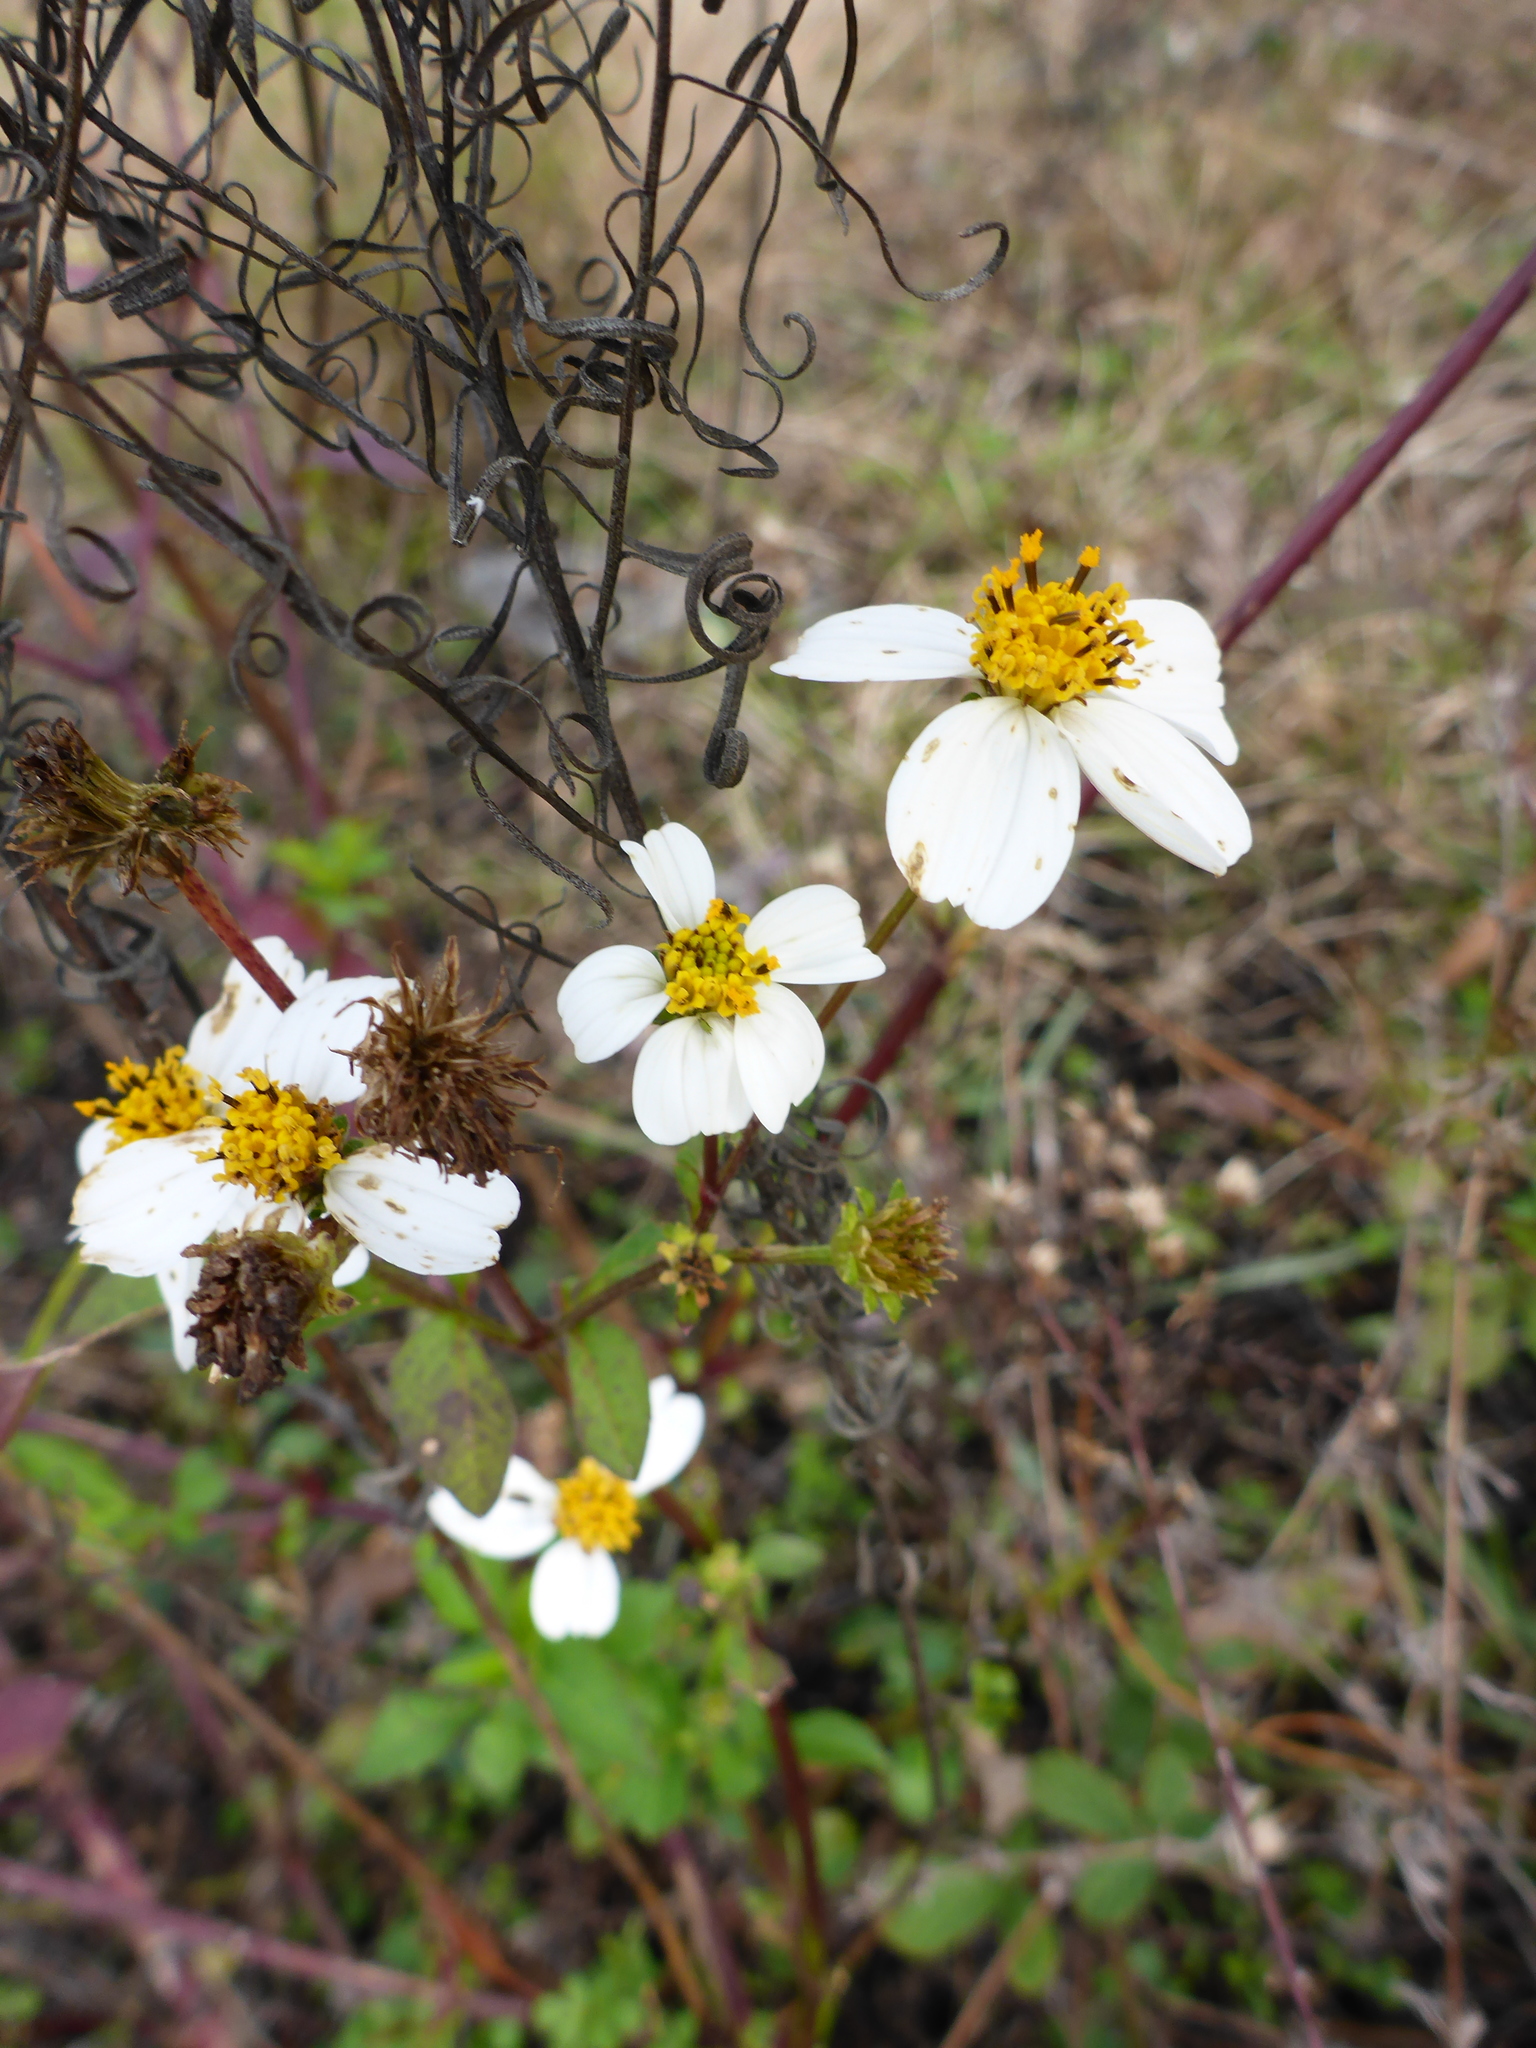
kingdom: Plantae
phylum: Tracheophyta
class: Magnoliopsida
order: Asterales
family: Asteraceae
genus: Bidens
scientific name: Bidens alba
